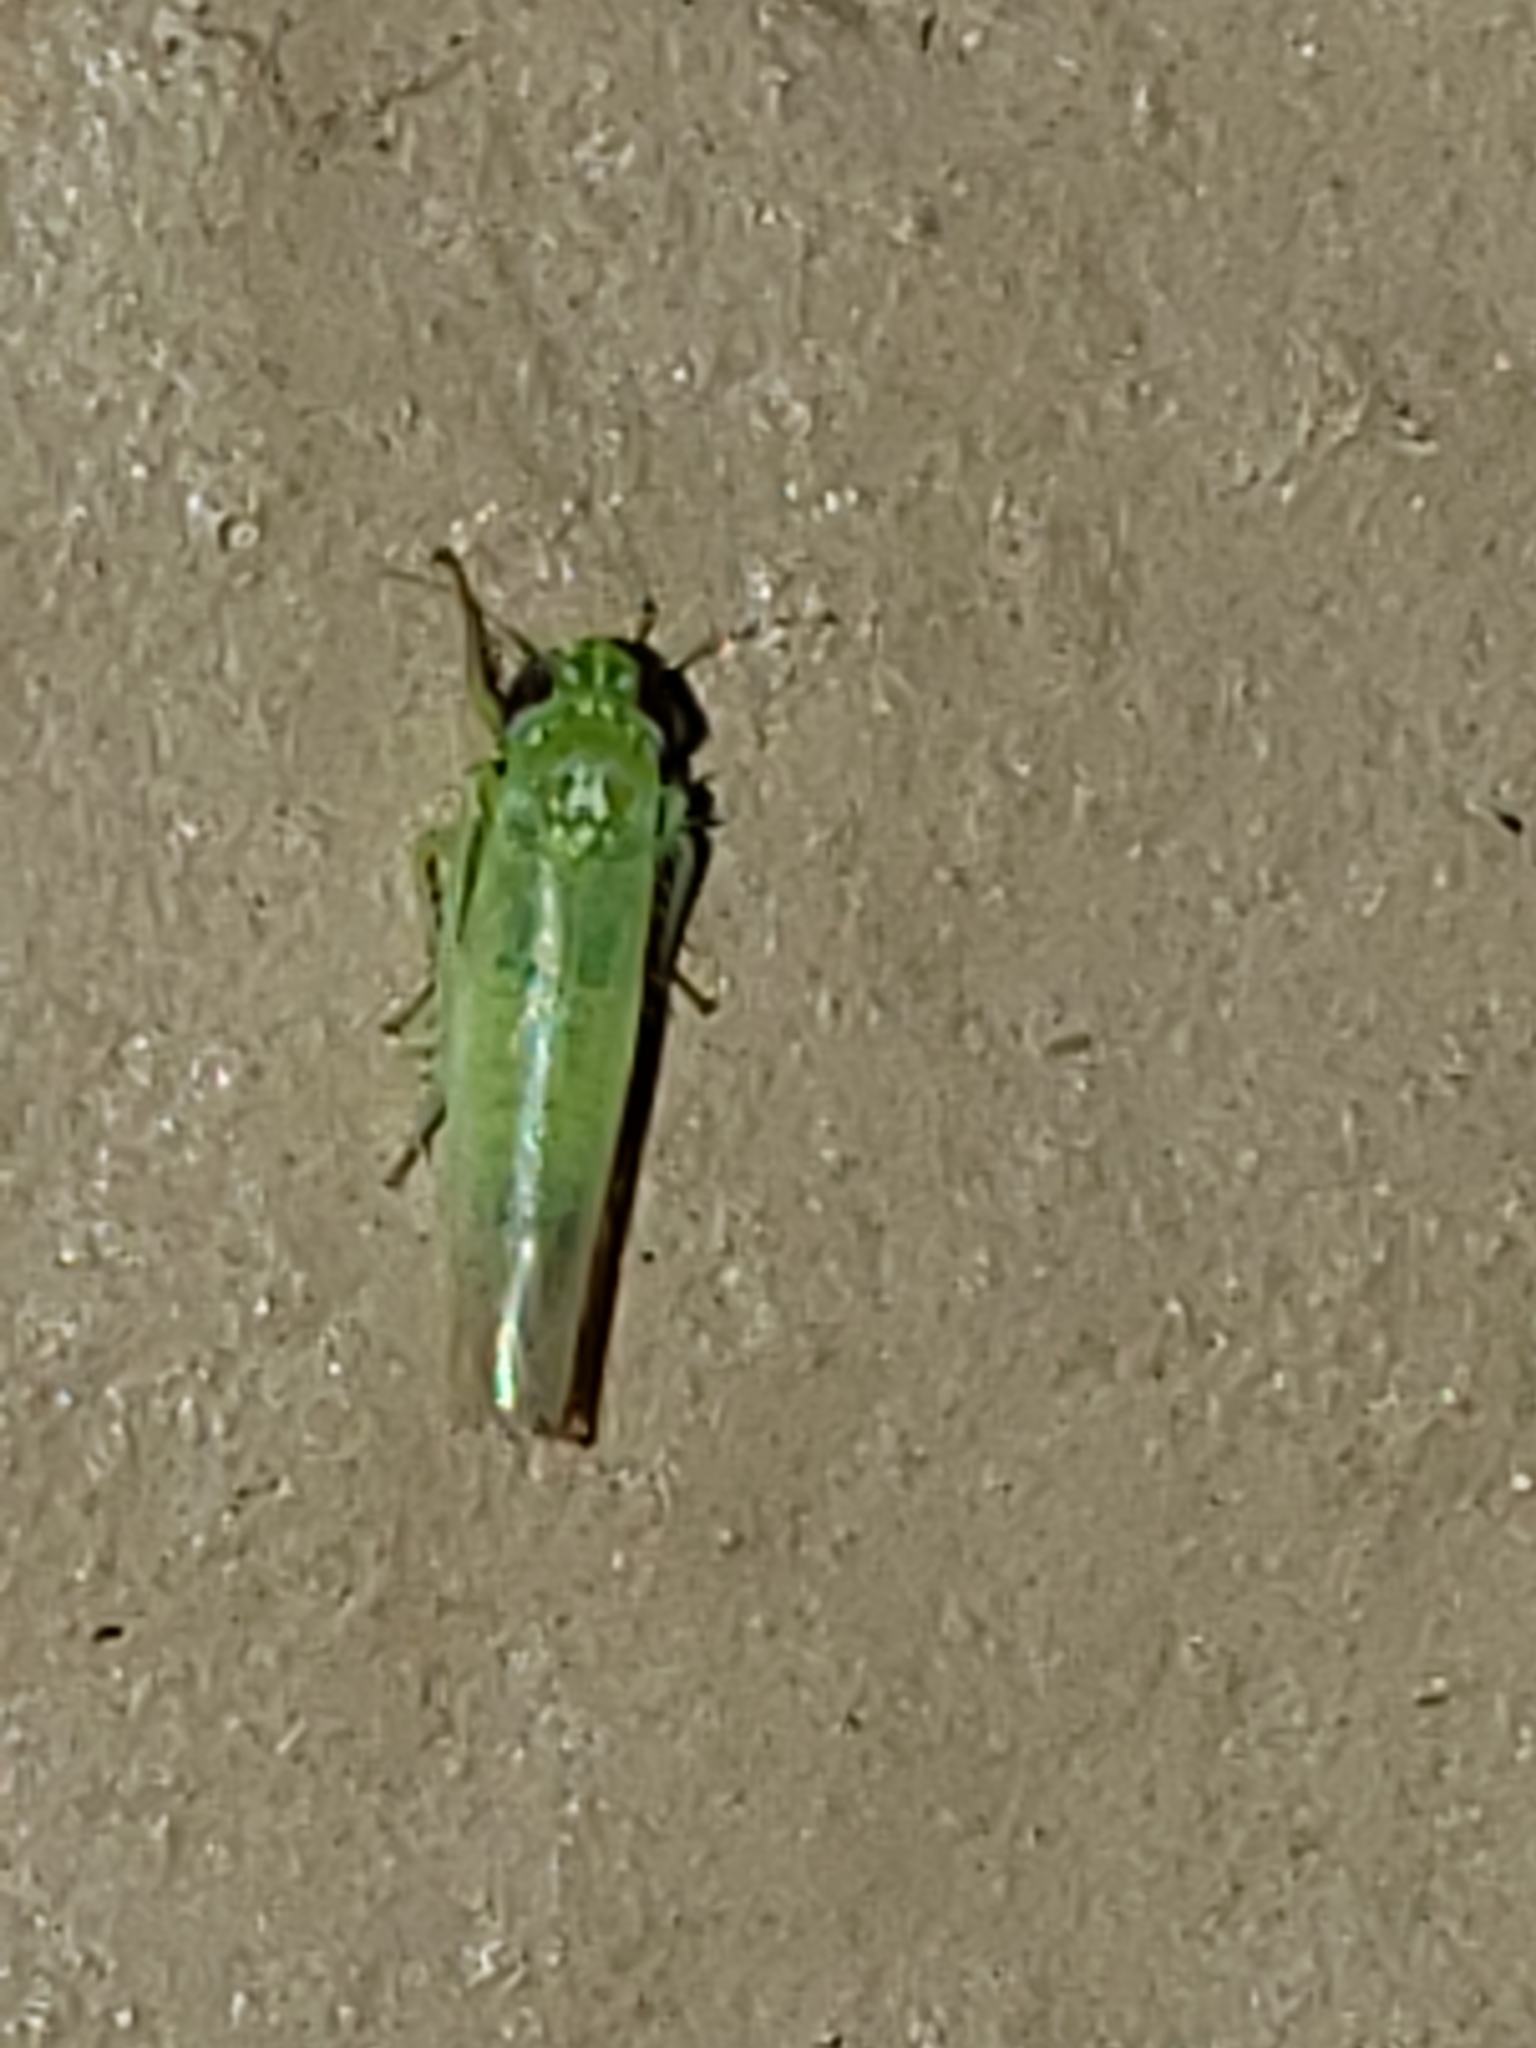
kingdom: Animalia
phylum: Arthropoda
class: Insecta
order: Hemiptera
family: Cicadellidae
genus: Empoasca
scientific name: Empoasca fabae
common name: Potato leafhopper
